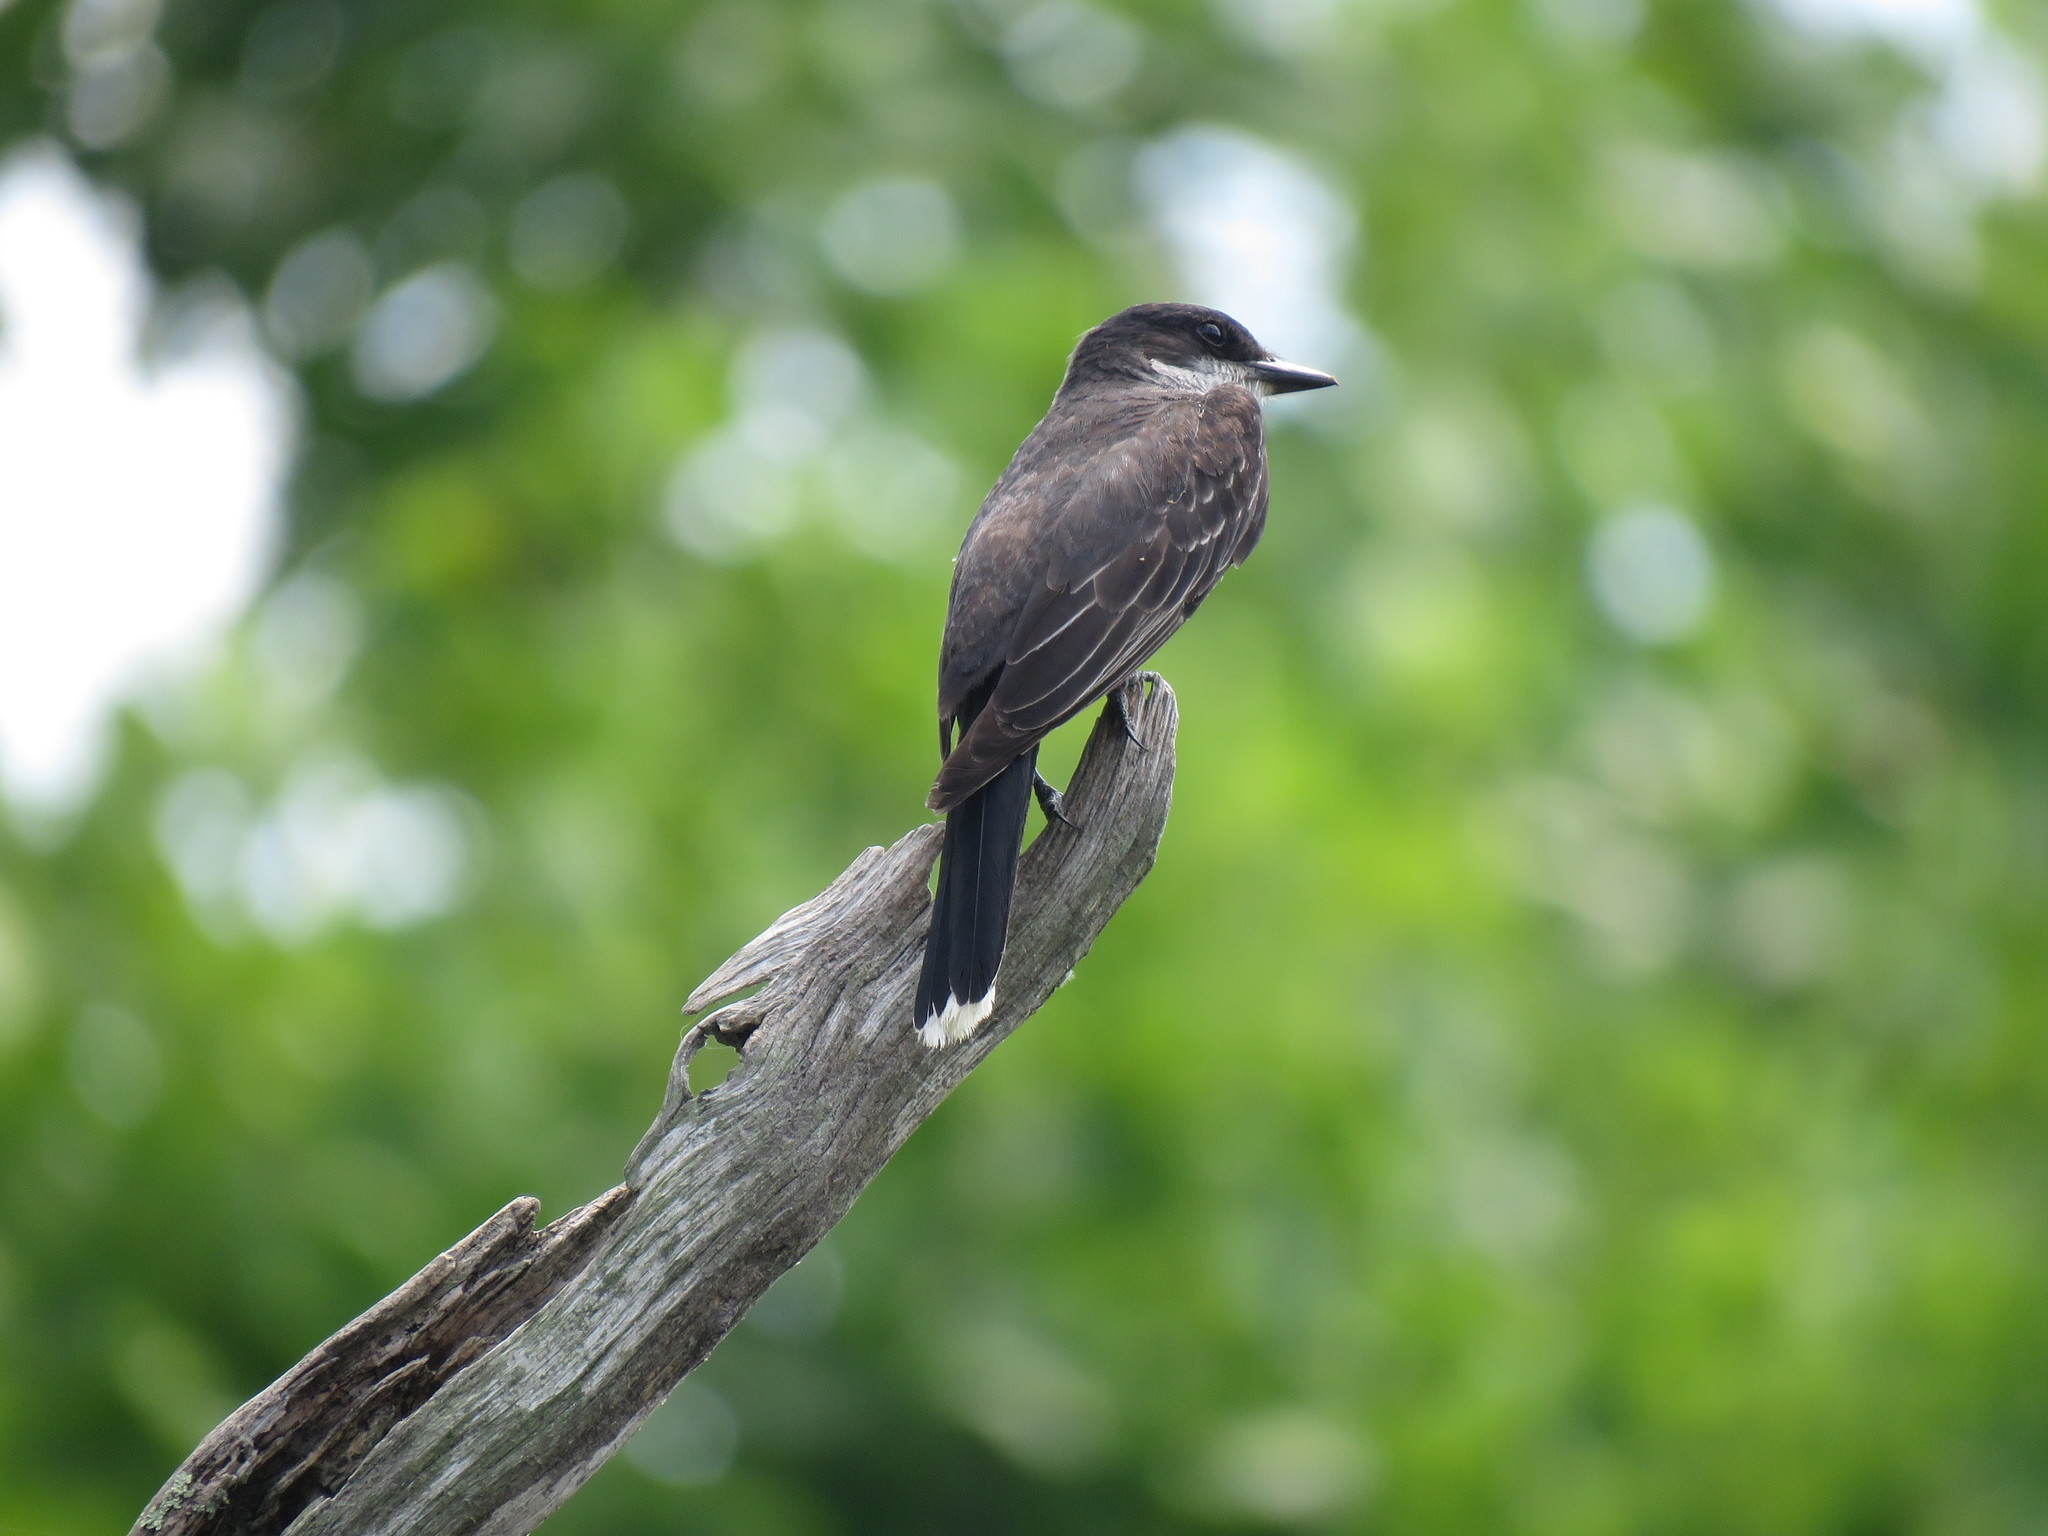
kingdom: Animalia
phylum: Chordata
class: Aves
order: Passeriformes
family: Tyrannidae
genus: Tyrannus
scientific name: Tyrannus tyrannus
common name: Eastern kingbird
